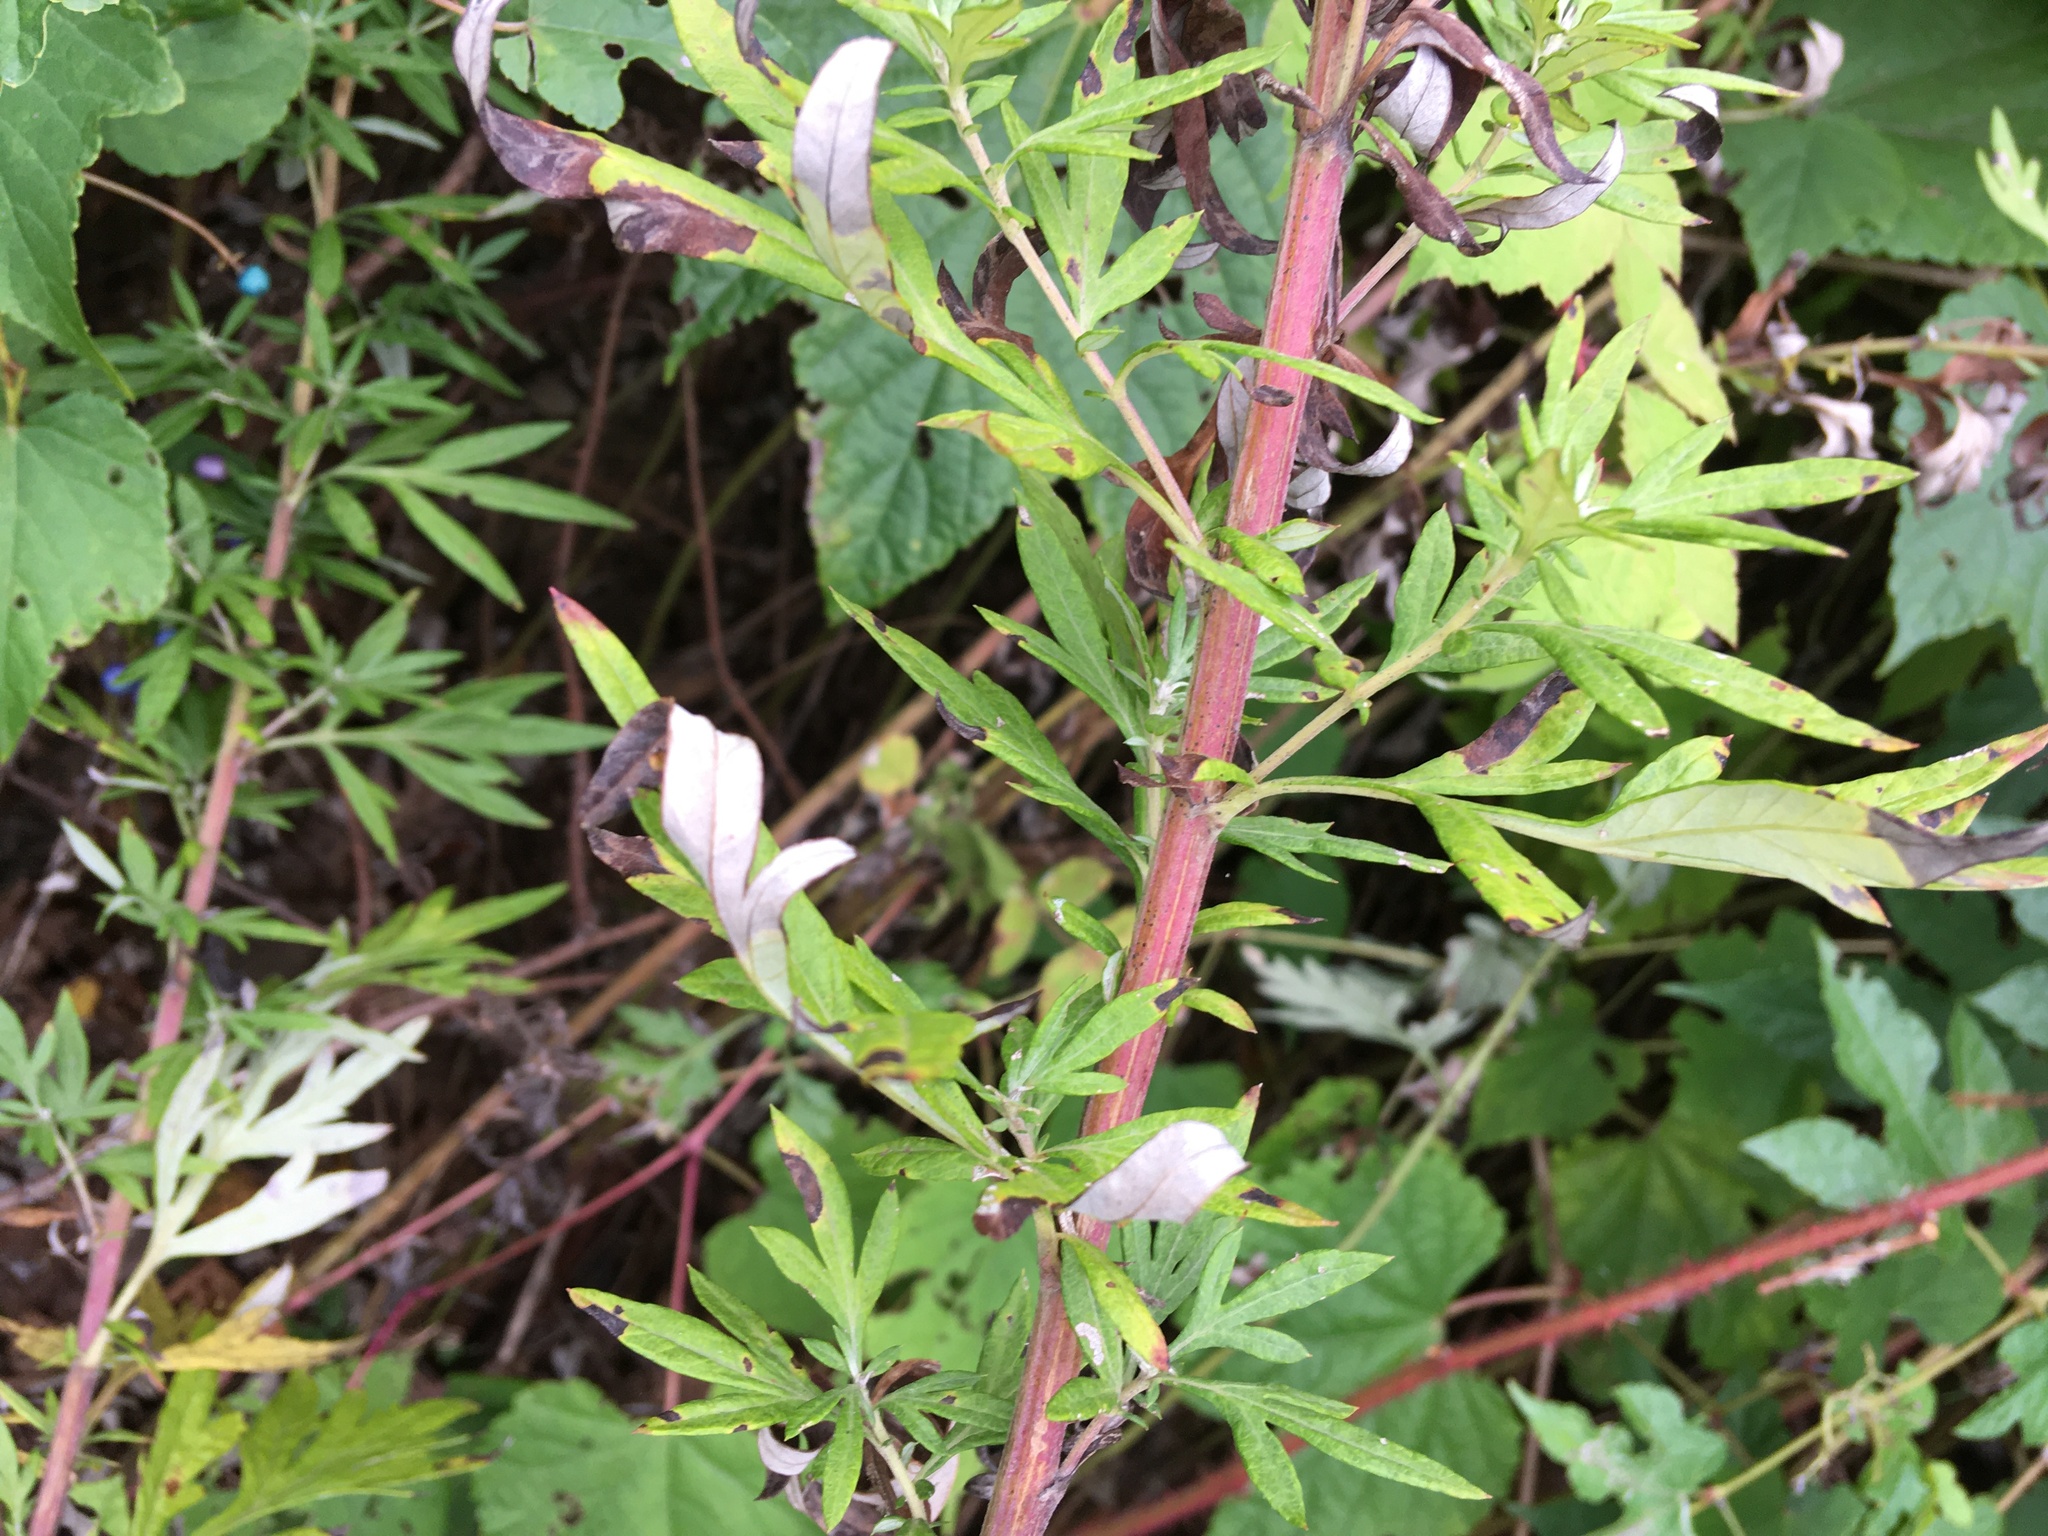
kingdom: Plantae
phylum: Tracheophyta
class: Magnoliopsida
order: Asterales
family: Asteraceae
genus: Artemisia
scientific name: Artemisia vulgaris
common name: Mugwort
